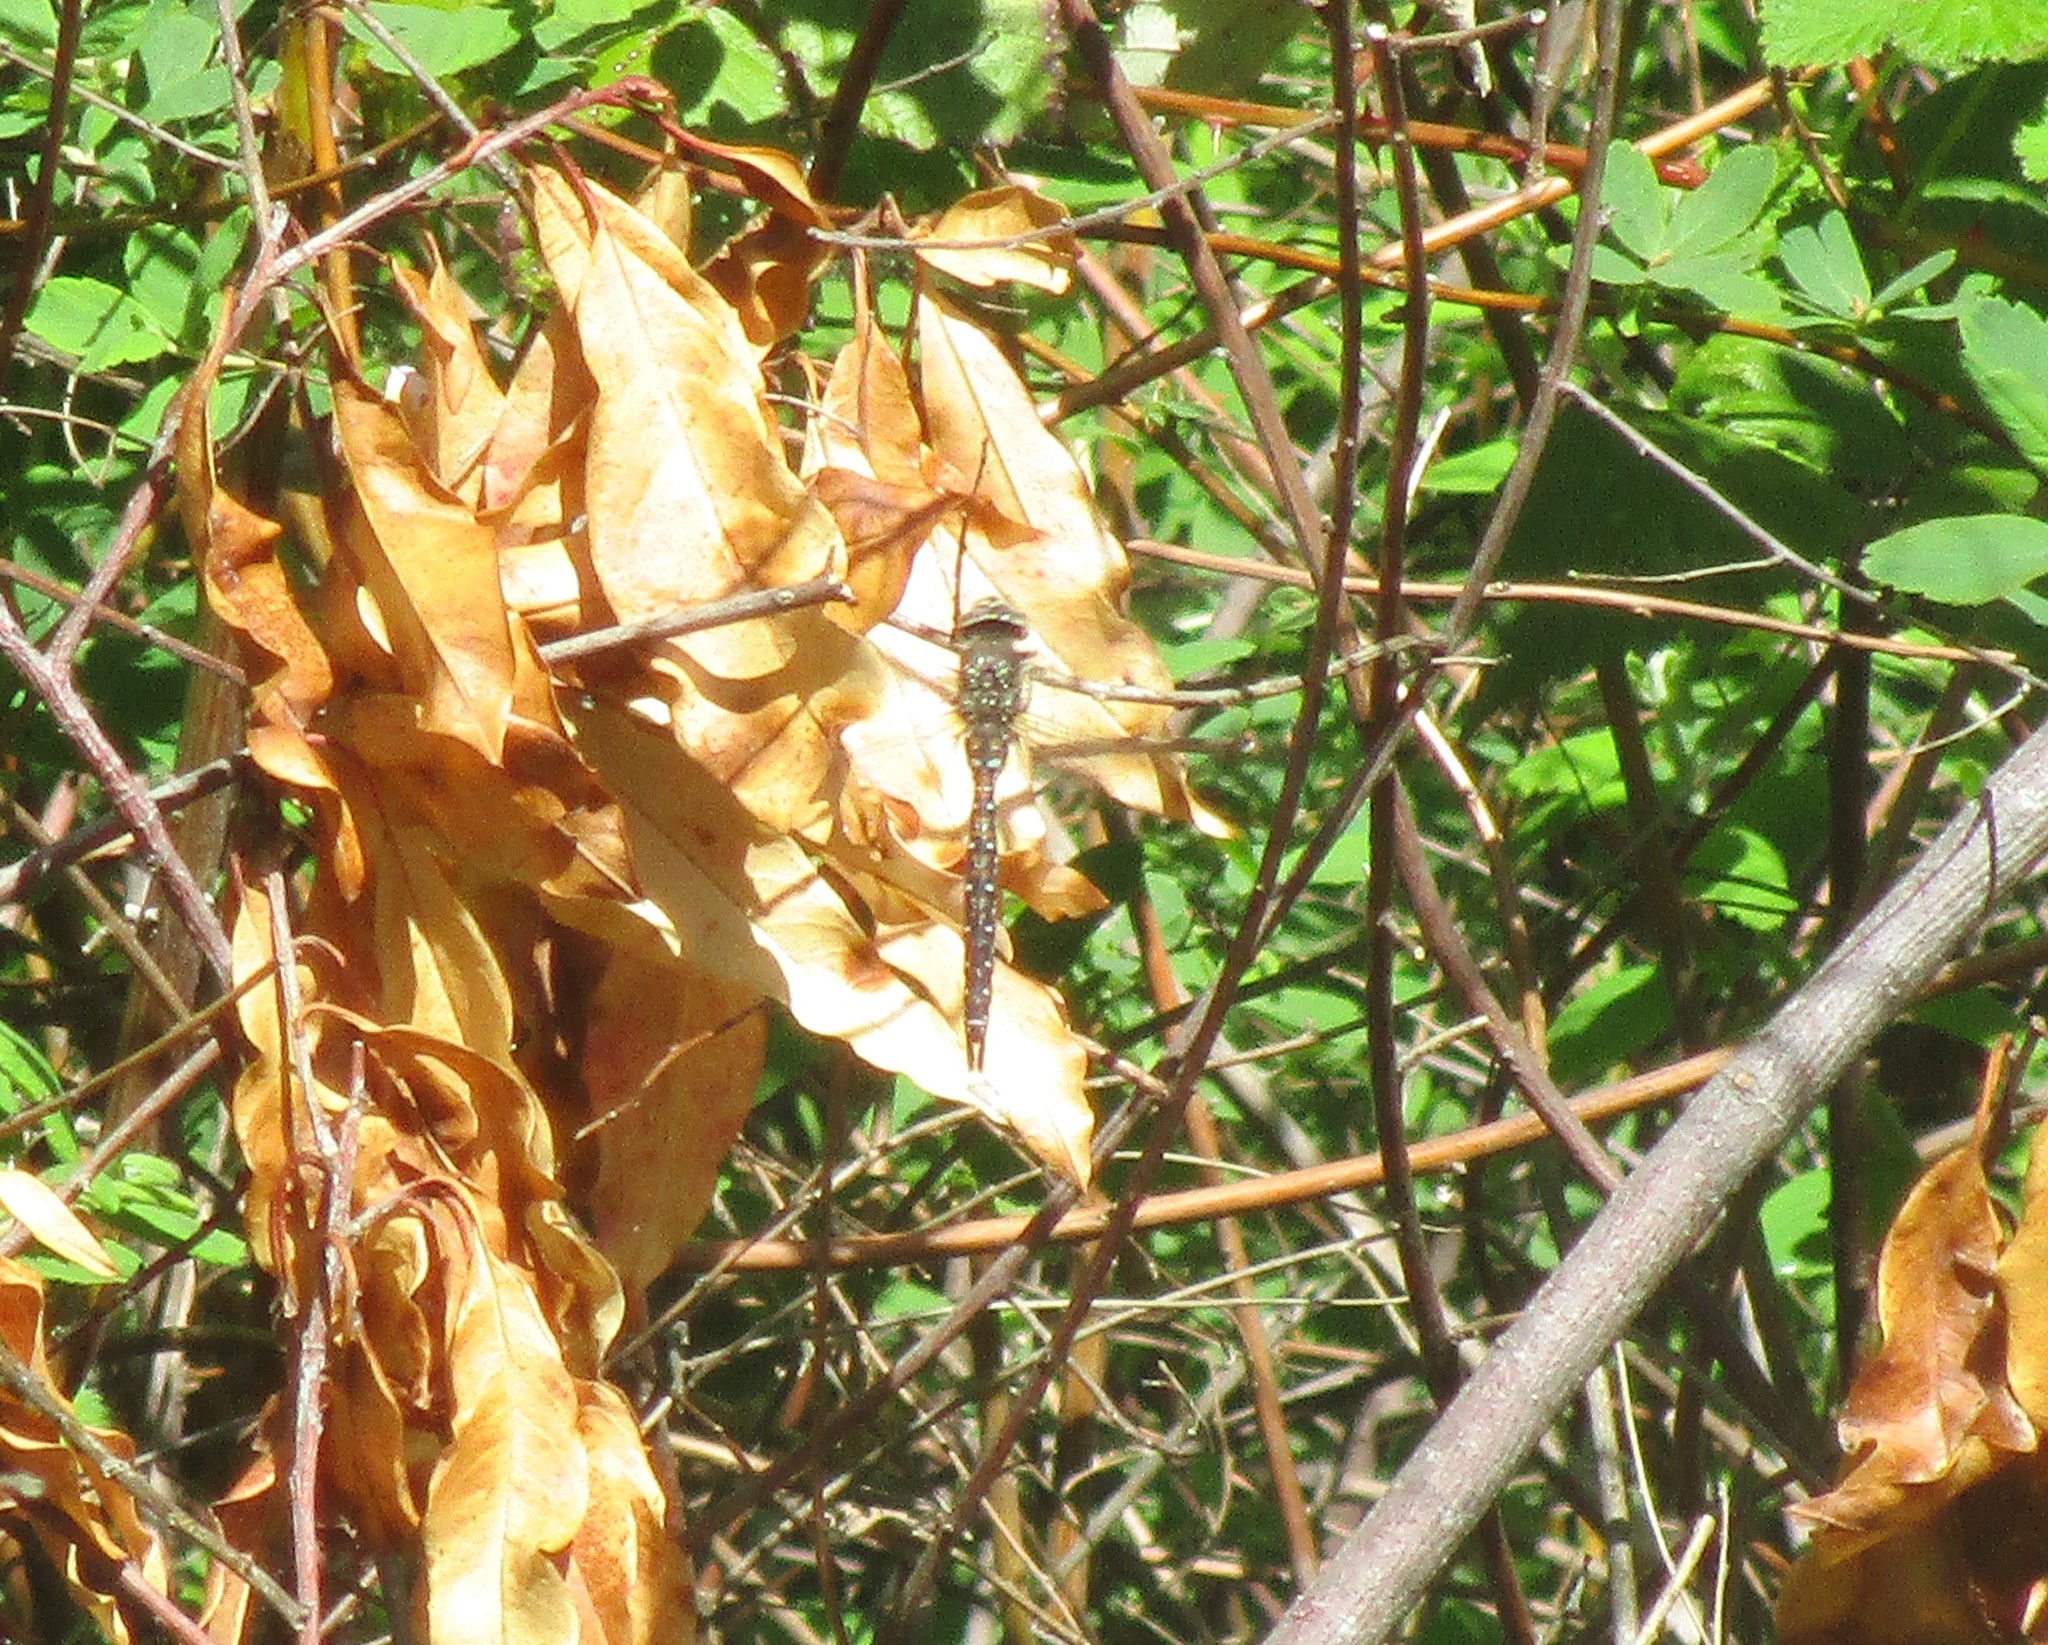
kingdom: Animalia
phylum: Arthropoda
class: Insecta
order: Odonata
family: Aeshnidae
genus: Rhionaeschna
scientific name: Rhionaeschna californica
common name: California darner
